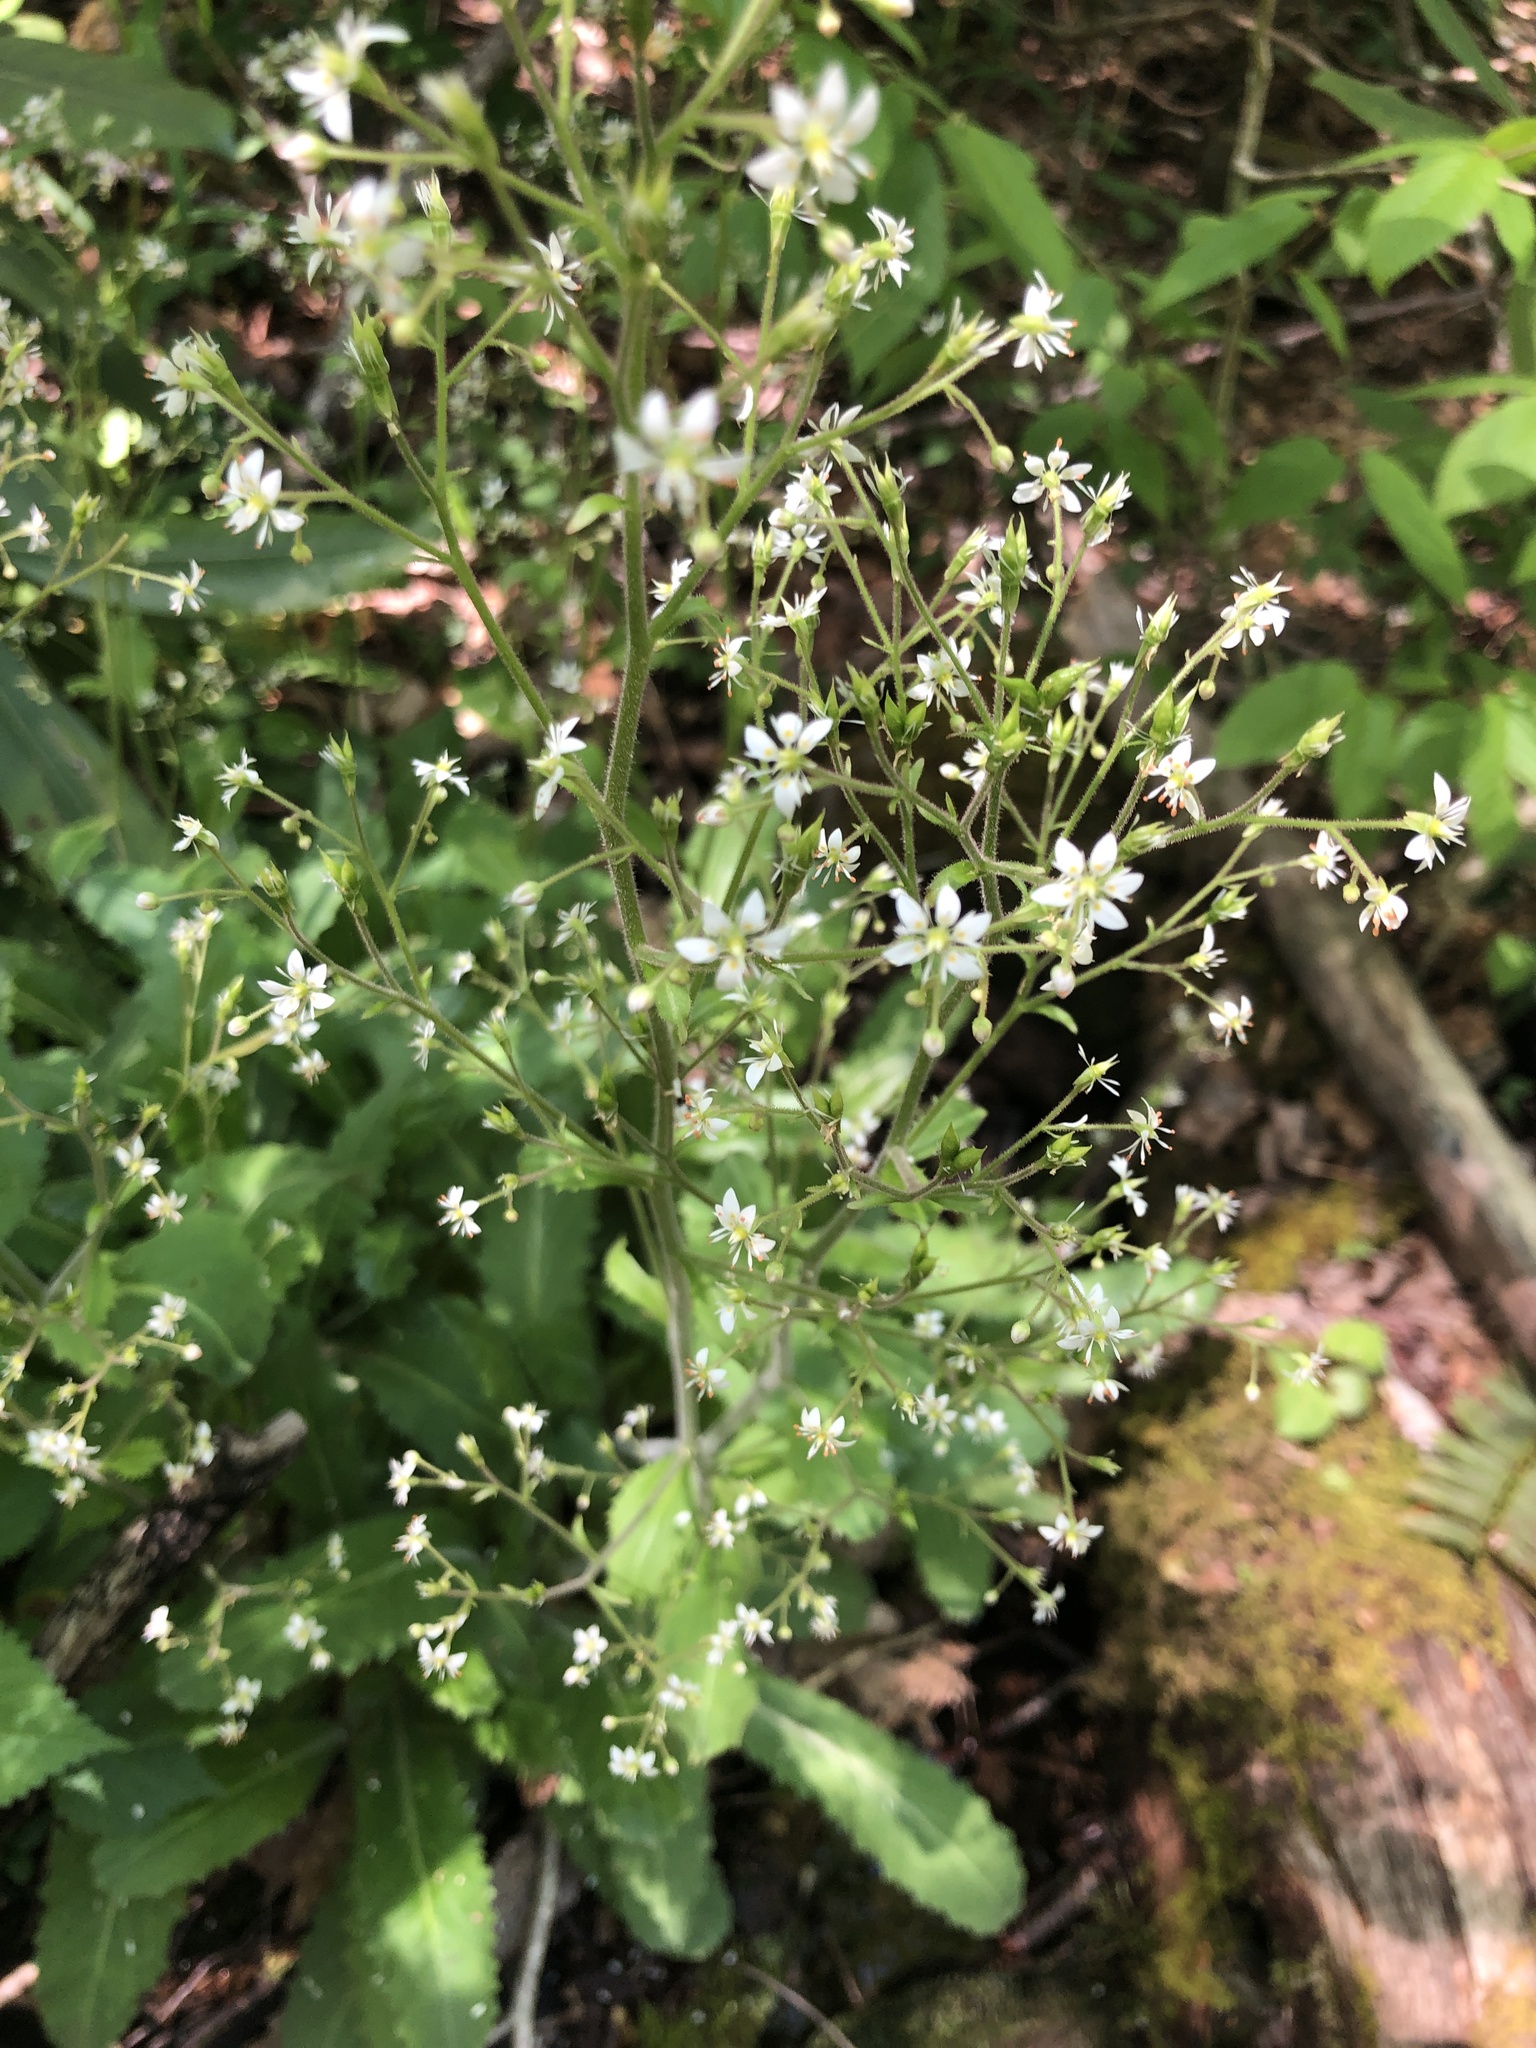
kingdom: Plantae
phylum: Tracheophyta
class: Magnoliopsida
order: Saxifragales
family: Saxifragaceae
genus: Micranthes
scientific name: Micranthes micranthidifolia
